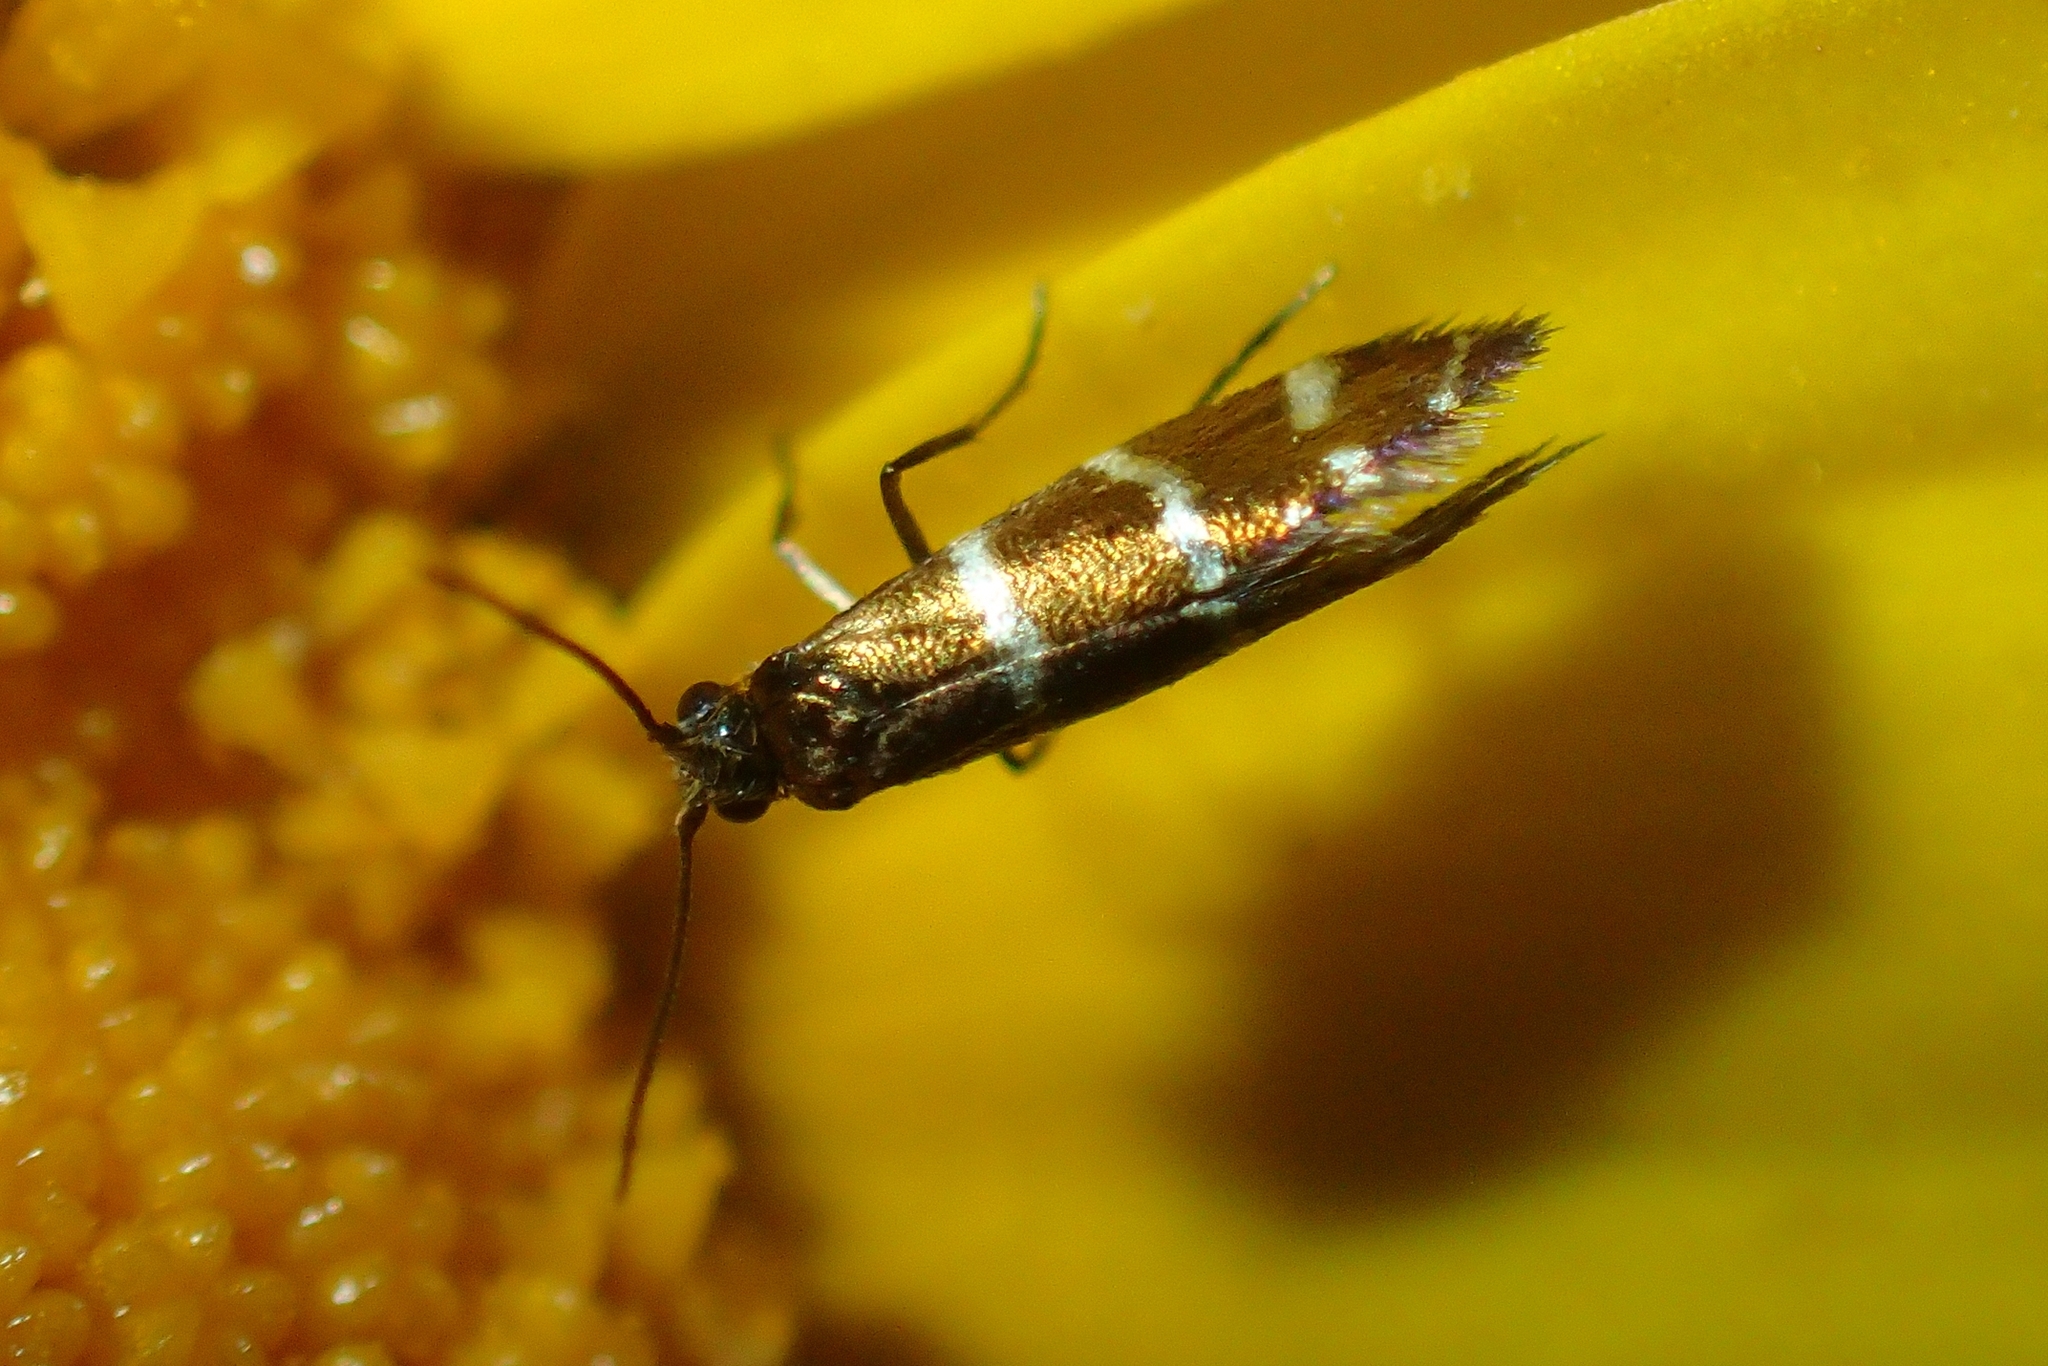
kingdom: Animalia
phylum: Arthropoda
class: Insecta
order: Lepidoptera
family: Micropterigidae
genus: Micropterix
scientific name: Micropterix cypriensis
